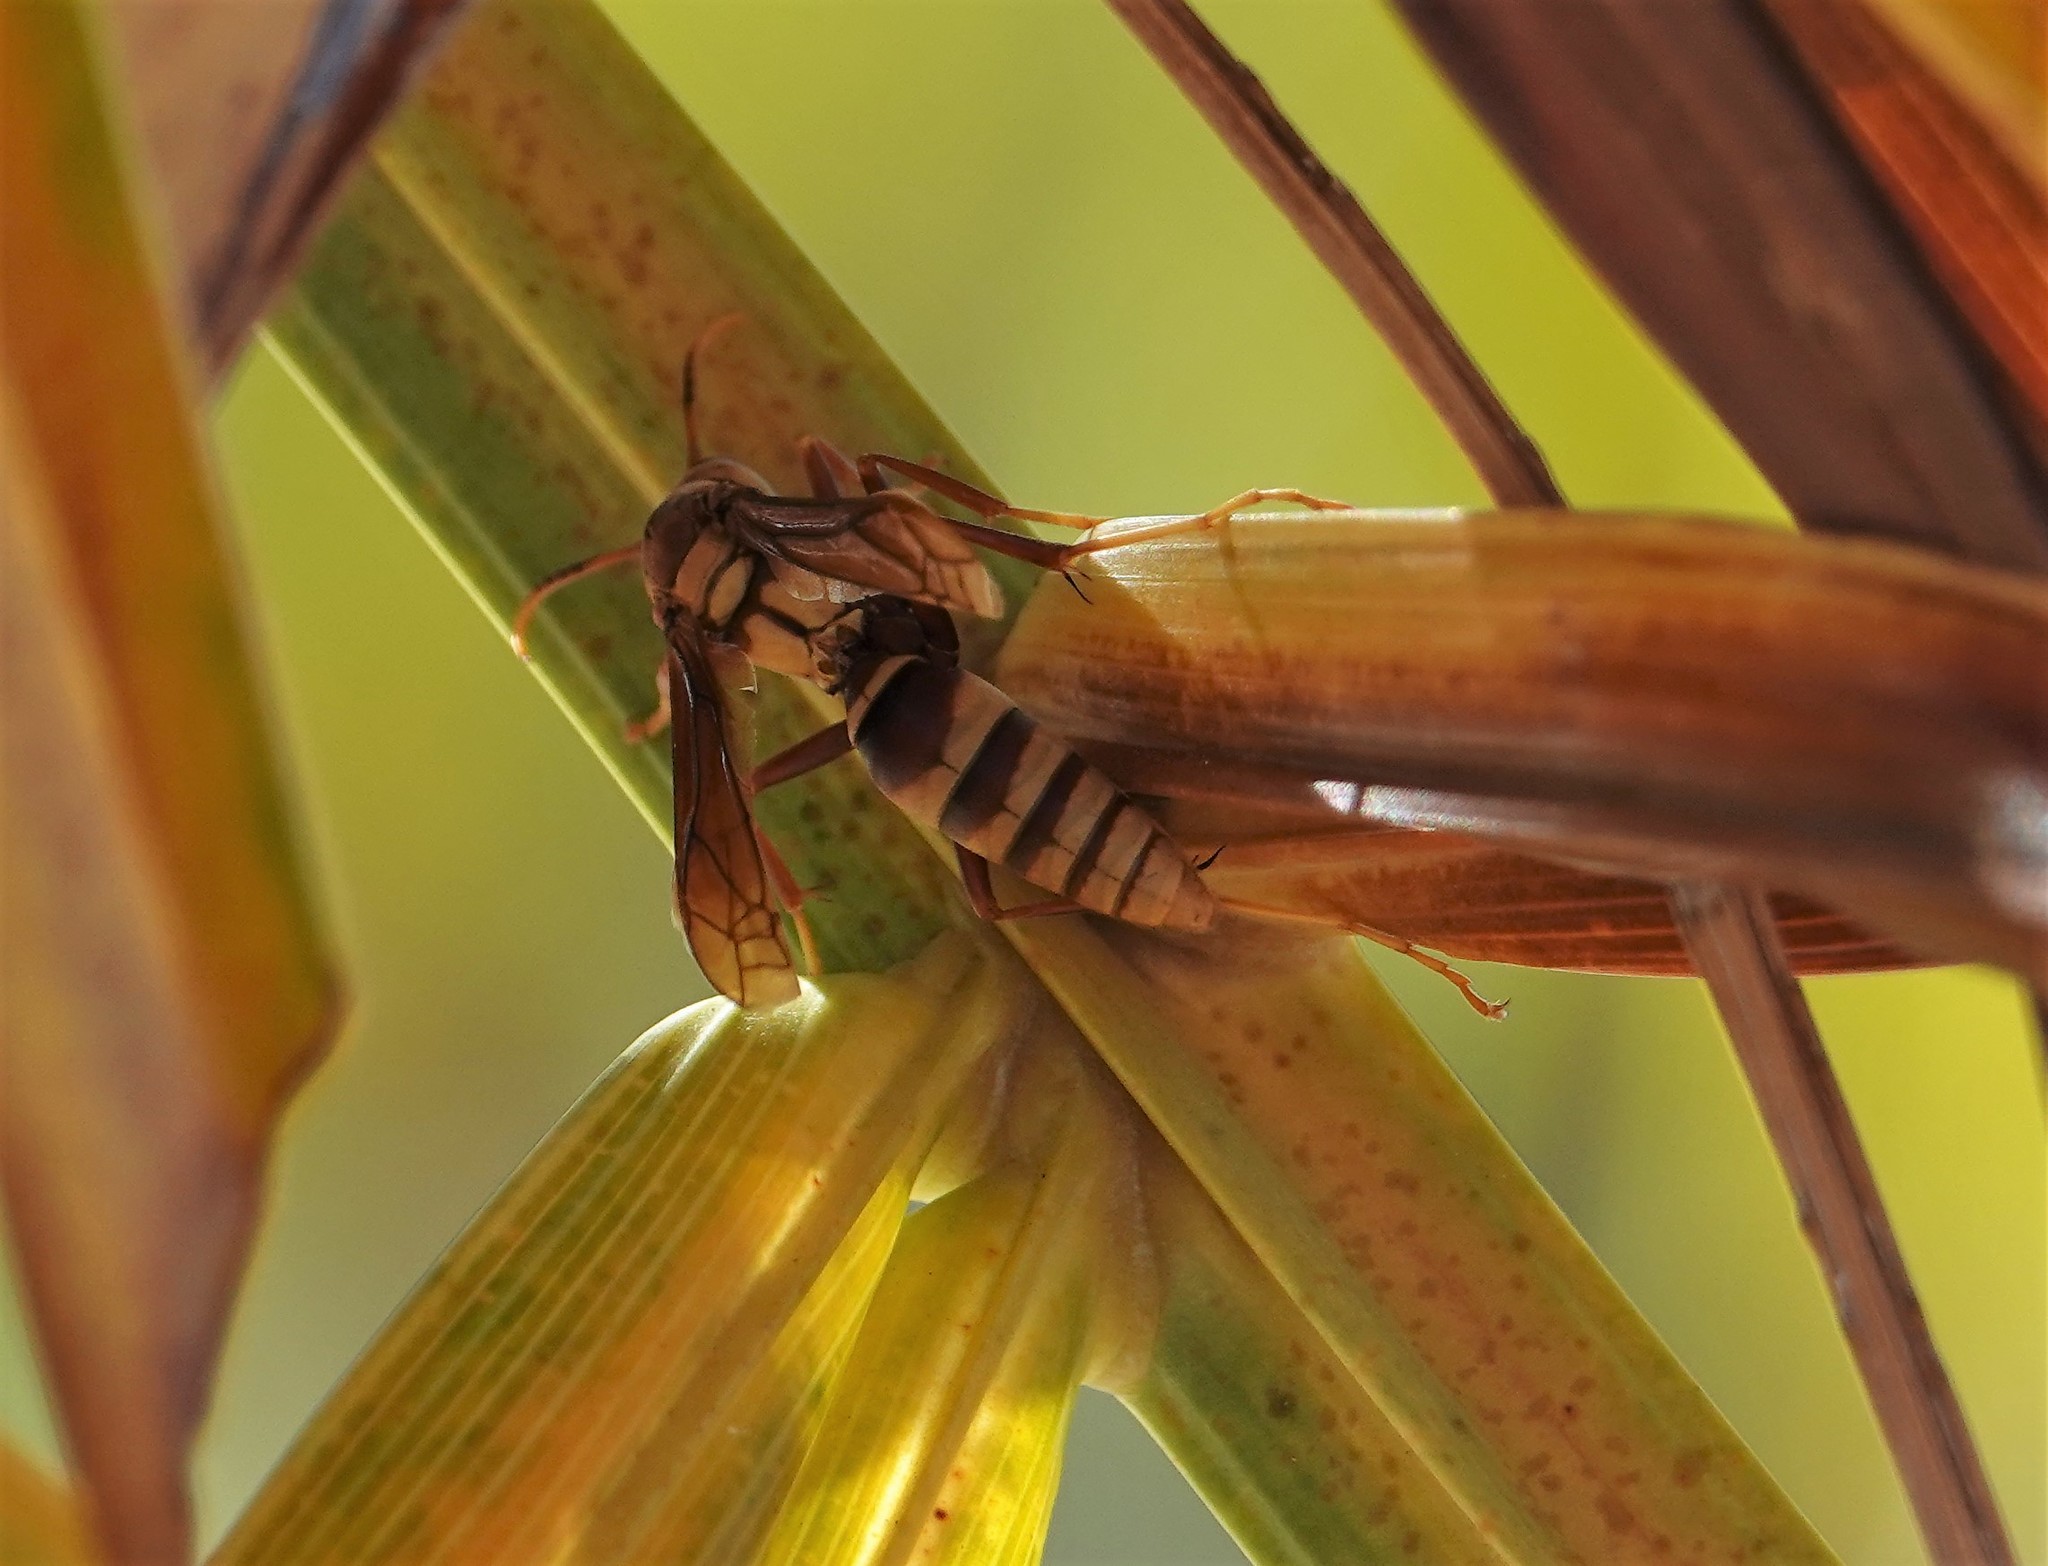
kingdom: Animalia
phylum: Arthropoda
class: Insecta
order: Hymenoptera
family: Eumenidae
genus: Polistes
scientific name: Polistes major
